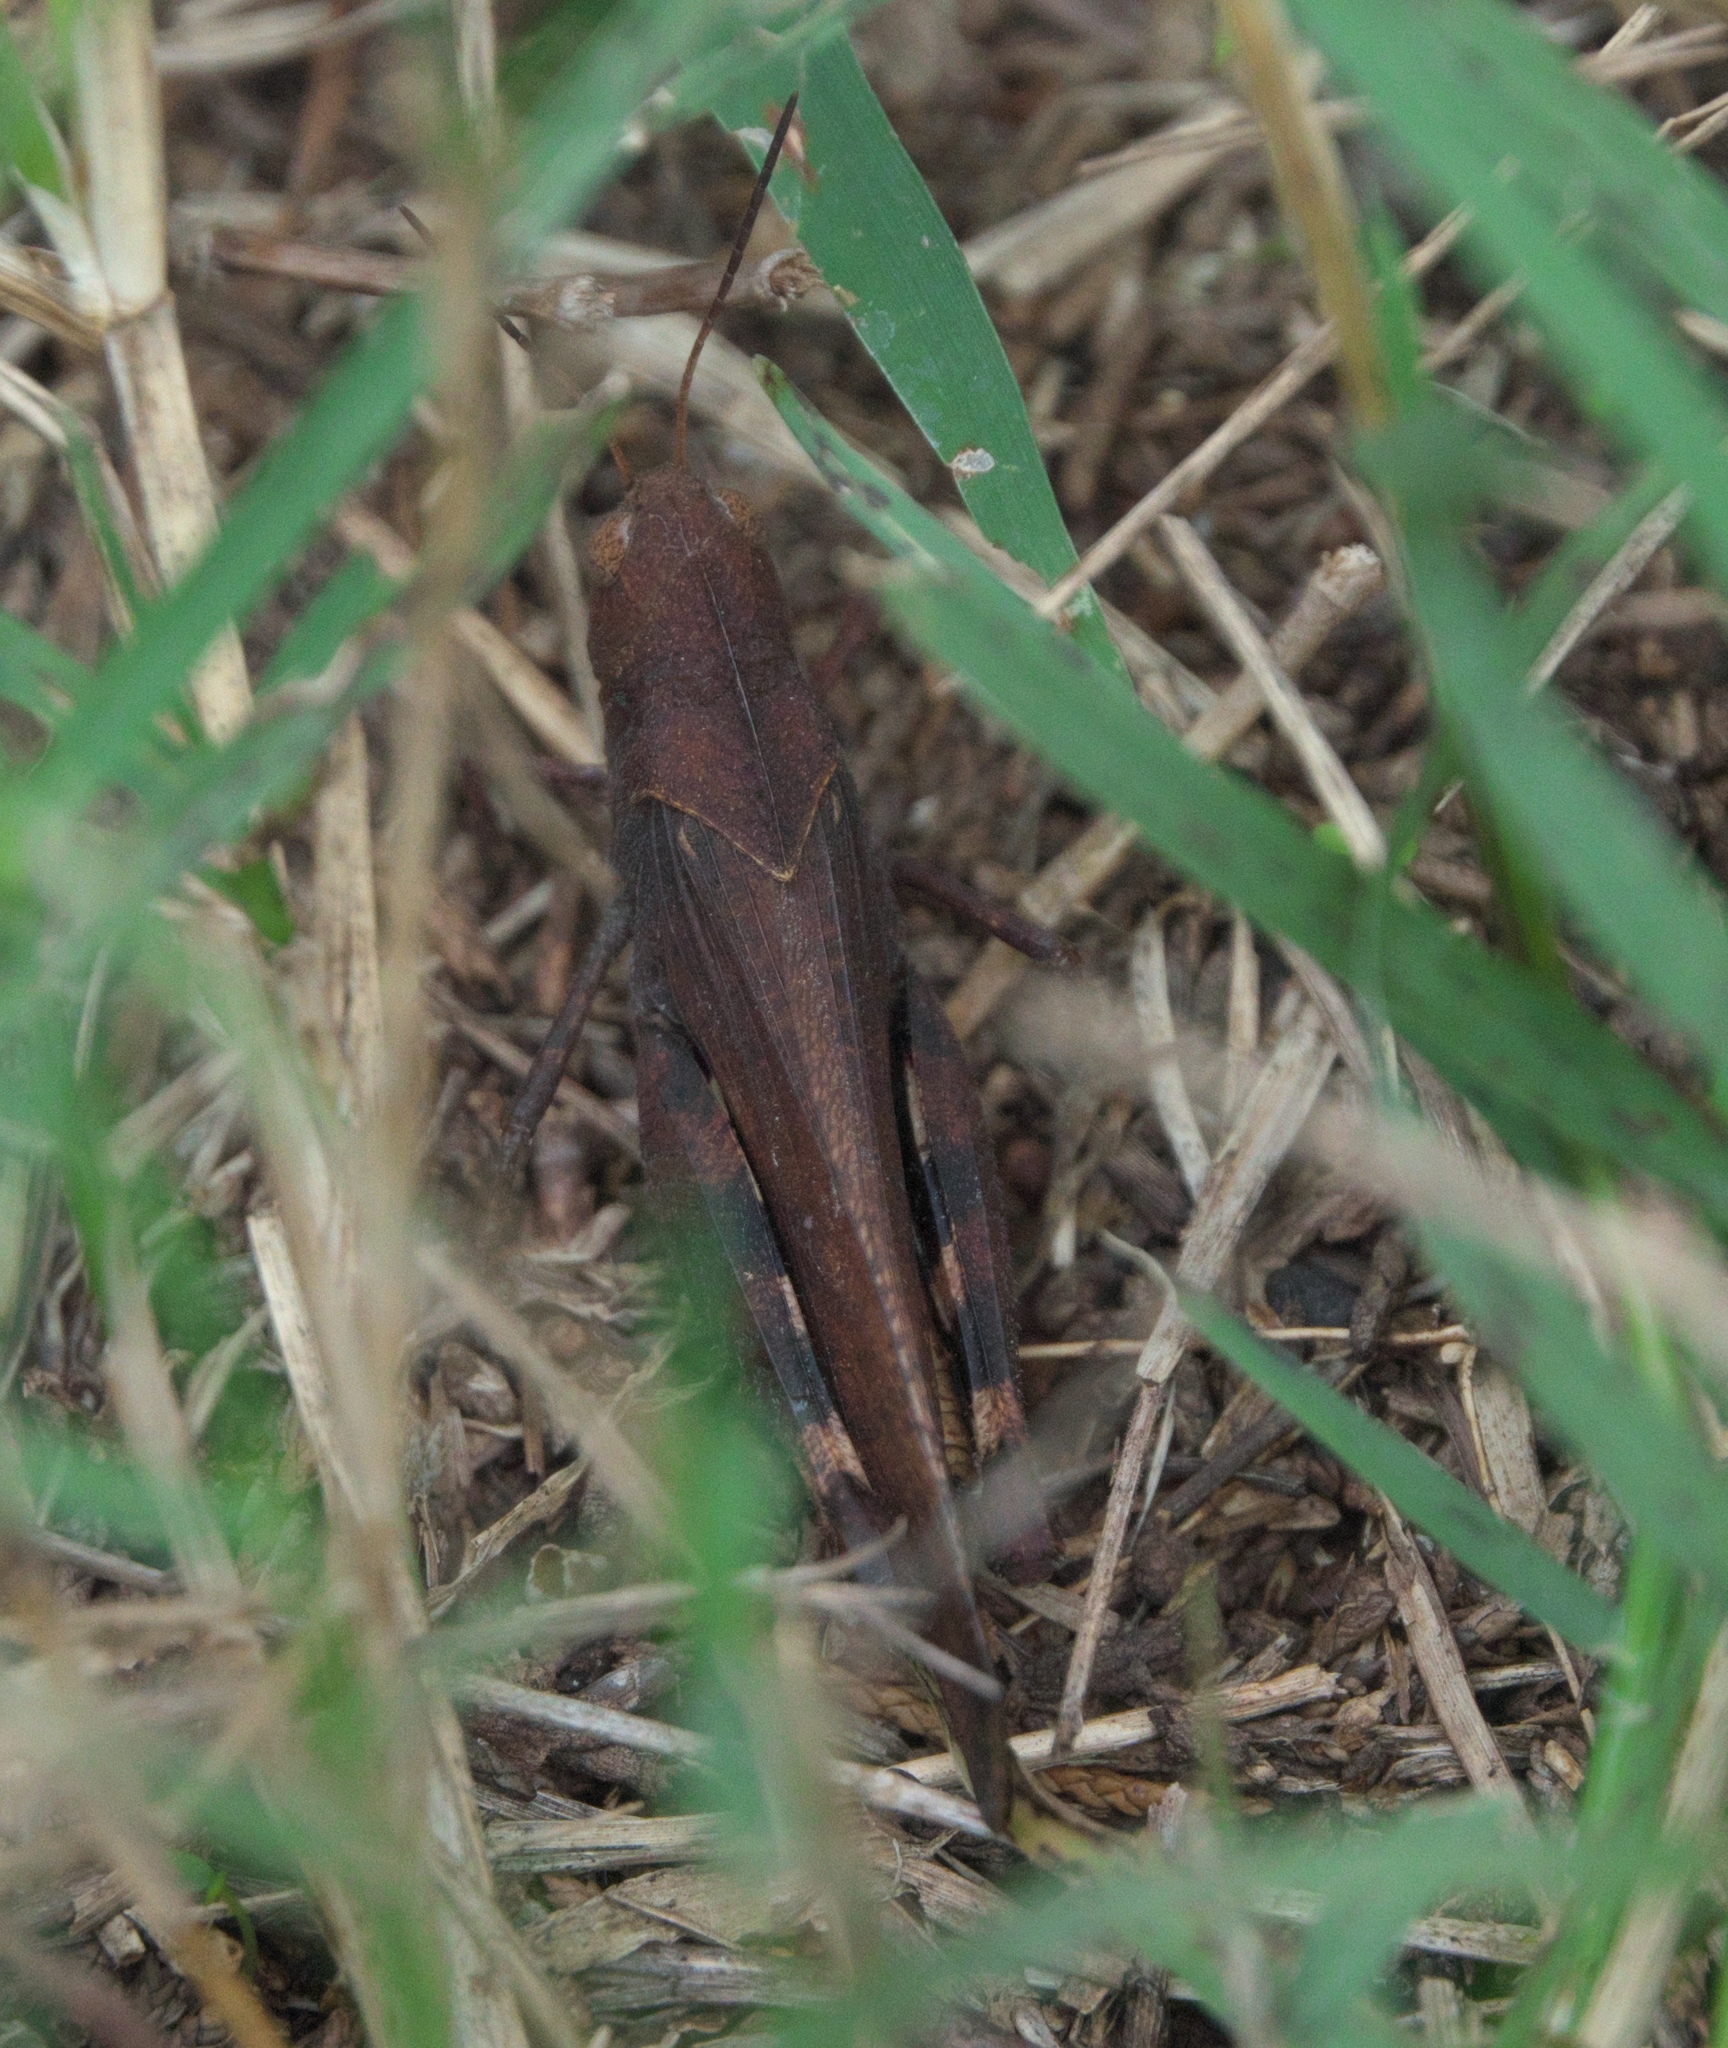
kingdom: Animalia
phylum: Arthropoda
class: Insecta
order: Orthoptera
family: Acrididae
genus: Arphia
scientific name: Arphia xanthoptera
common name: Autumn yellow-winged grasshopper
